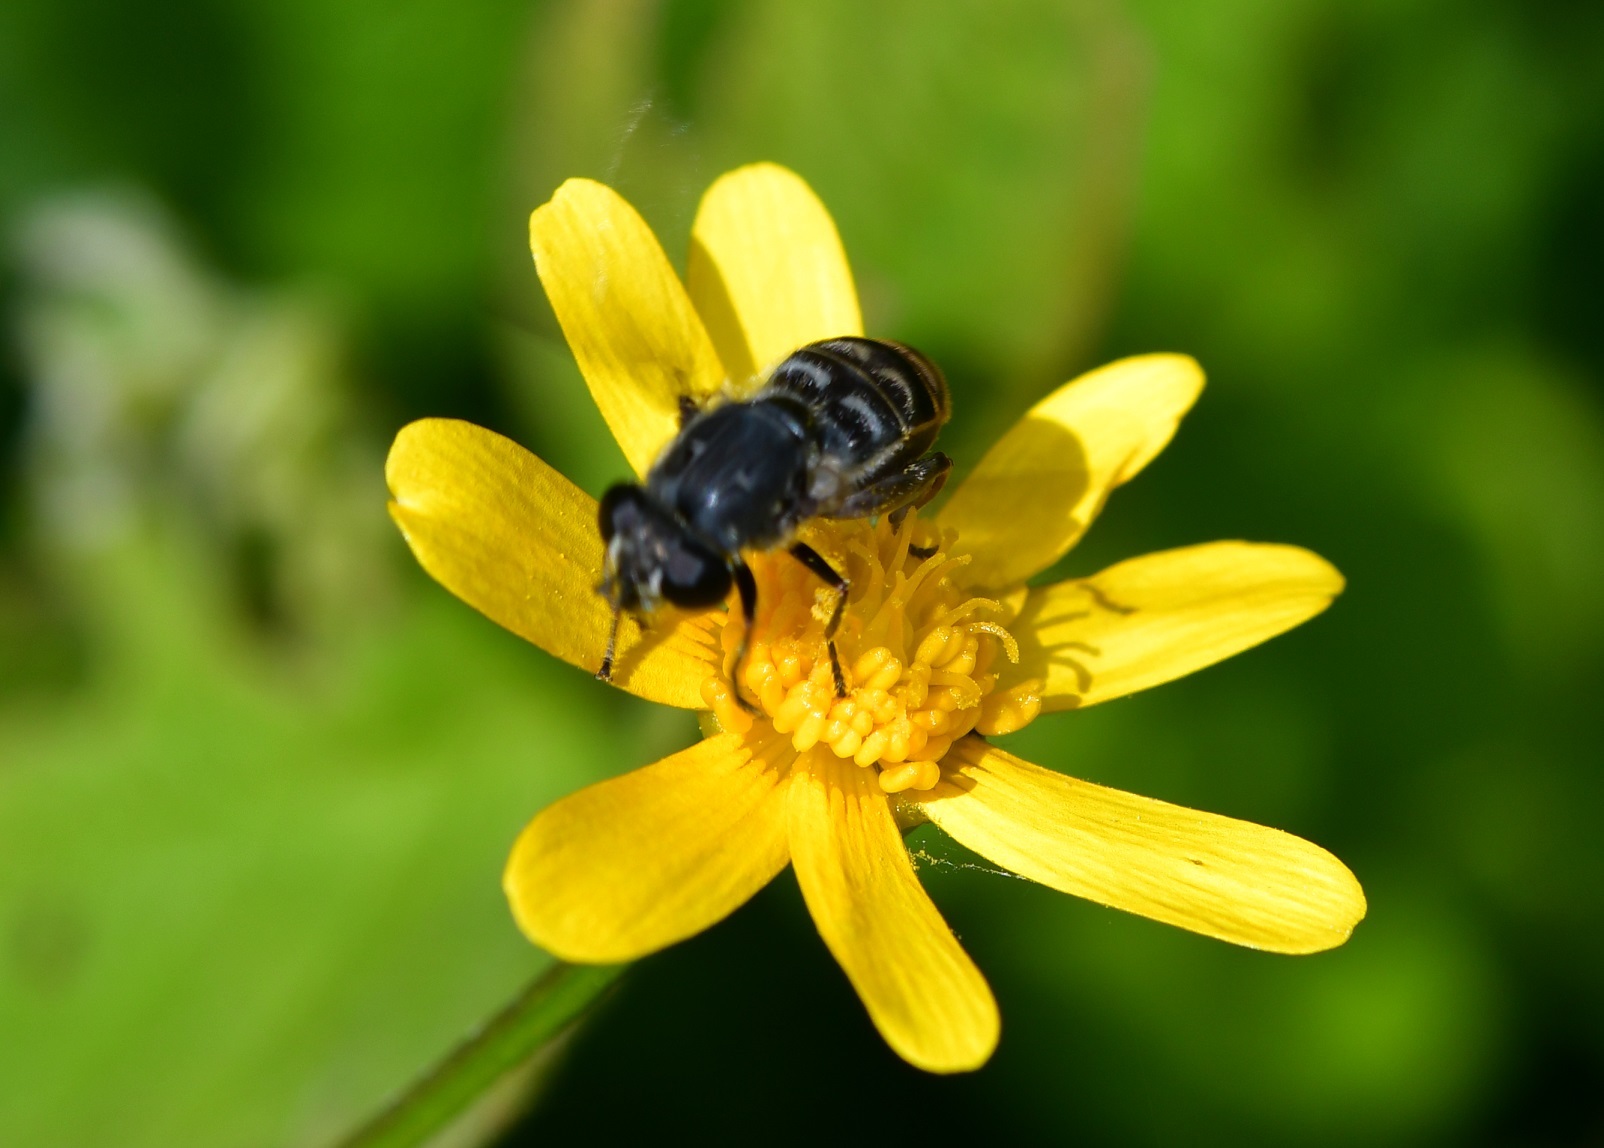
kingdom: Animalia
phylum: Arthropoda
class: Insecta
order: Diptera
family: Syrphidae
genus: Asemosyrphus
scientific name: Asemosyrphus
